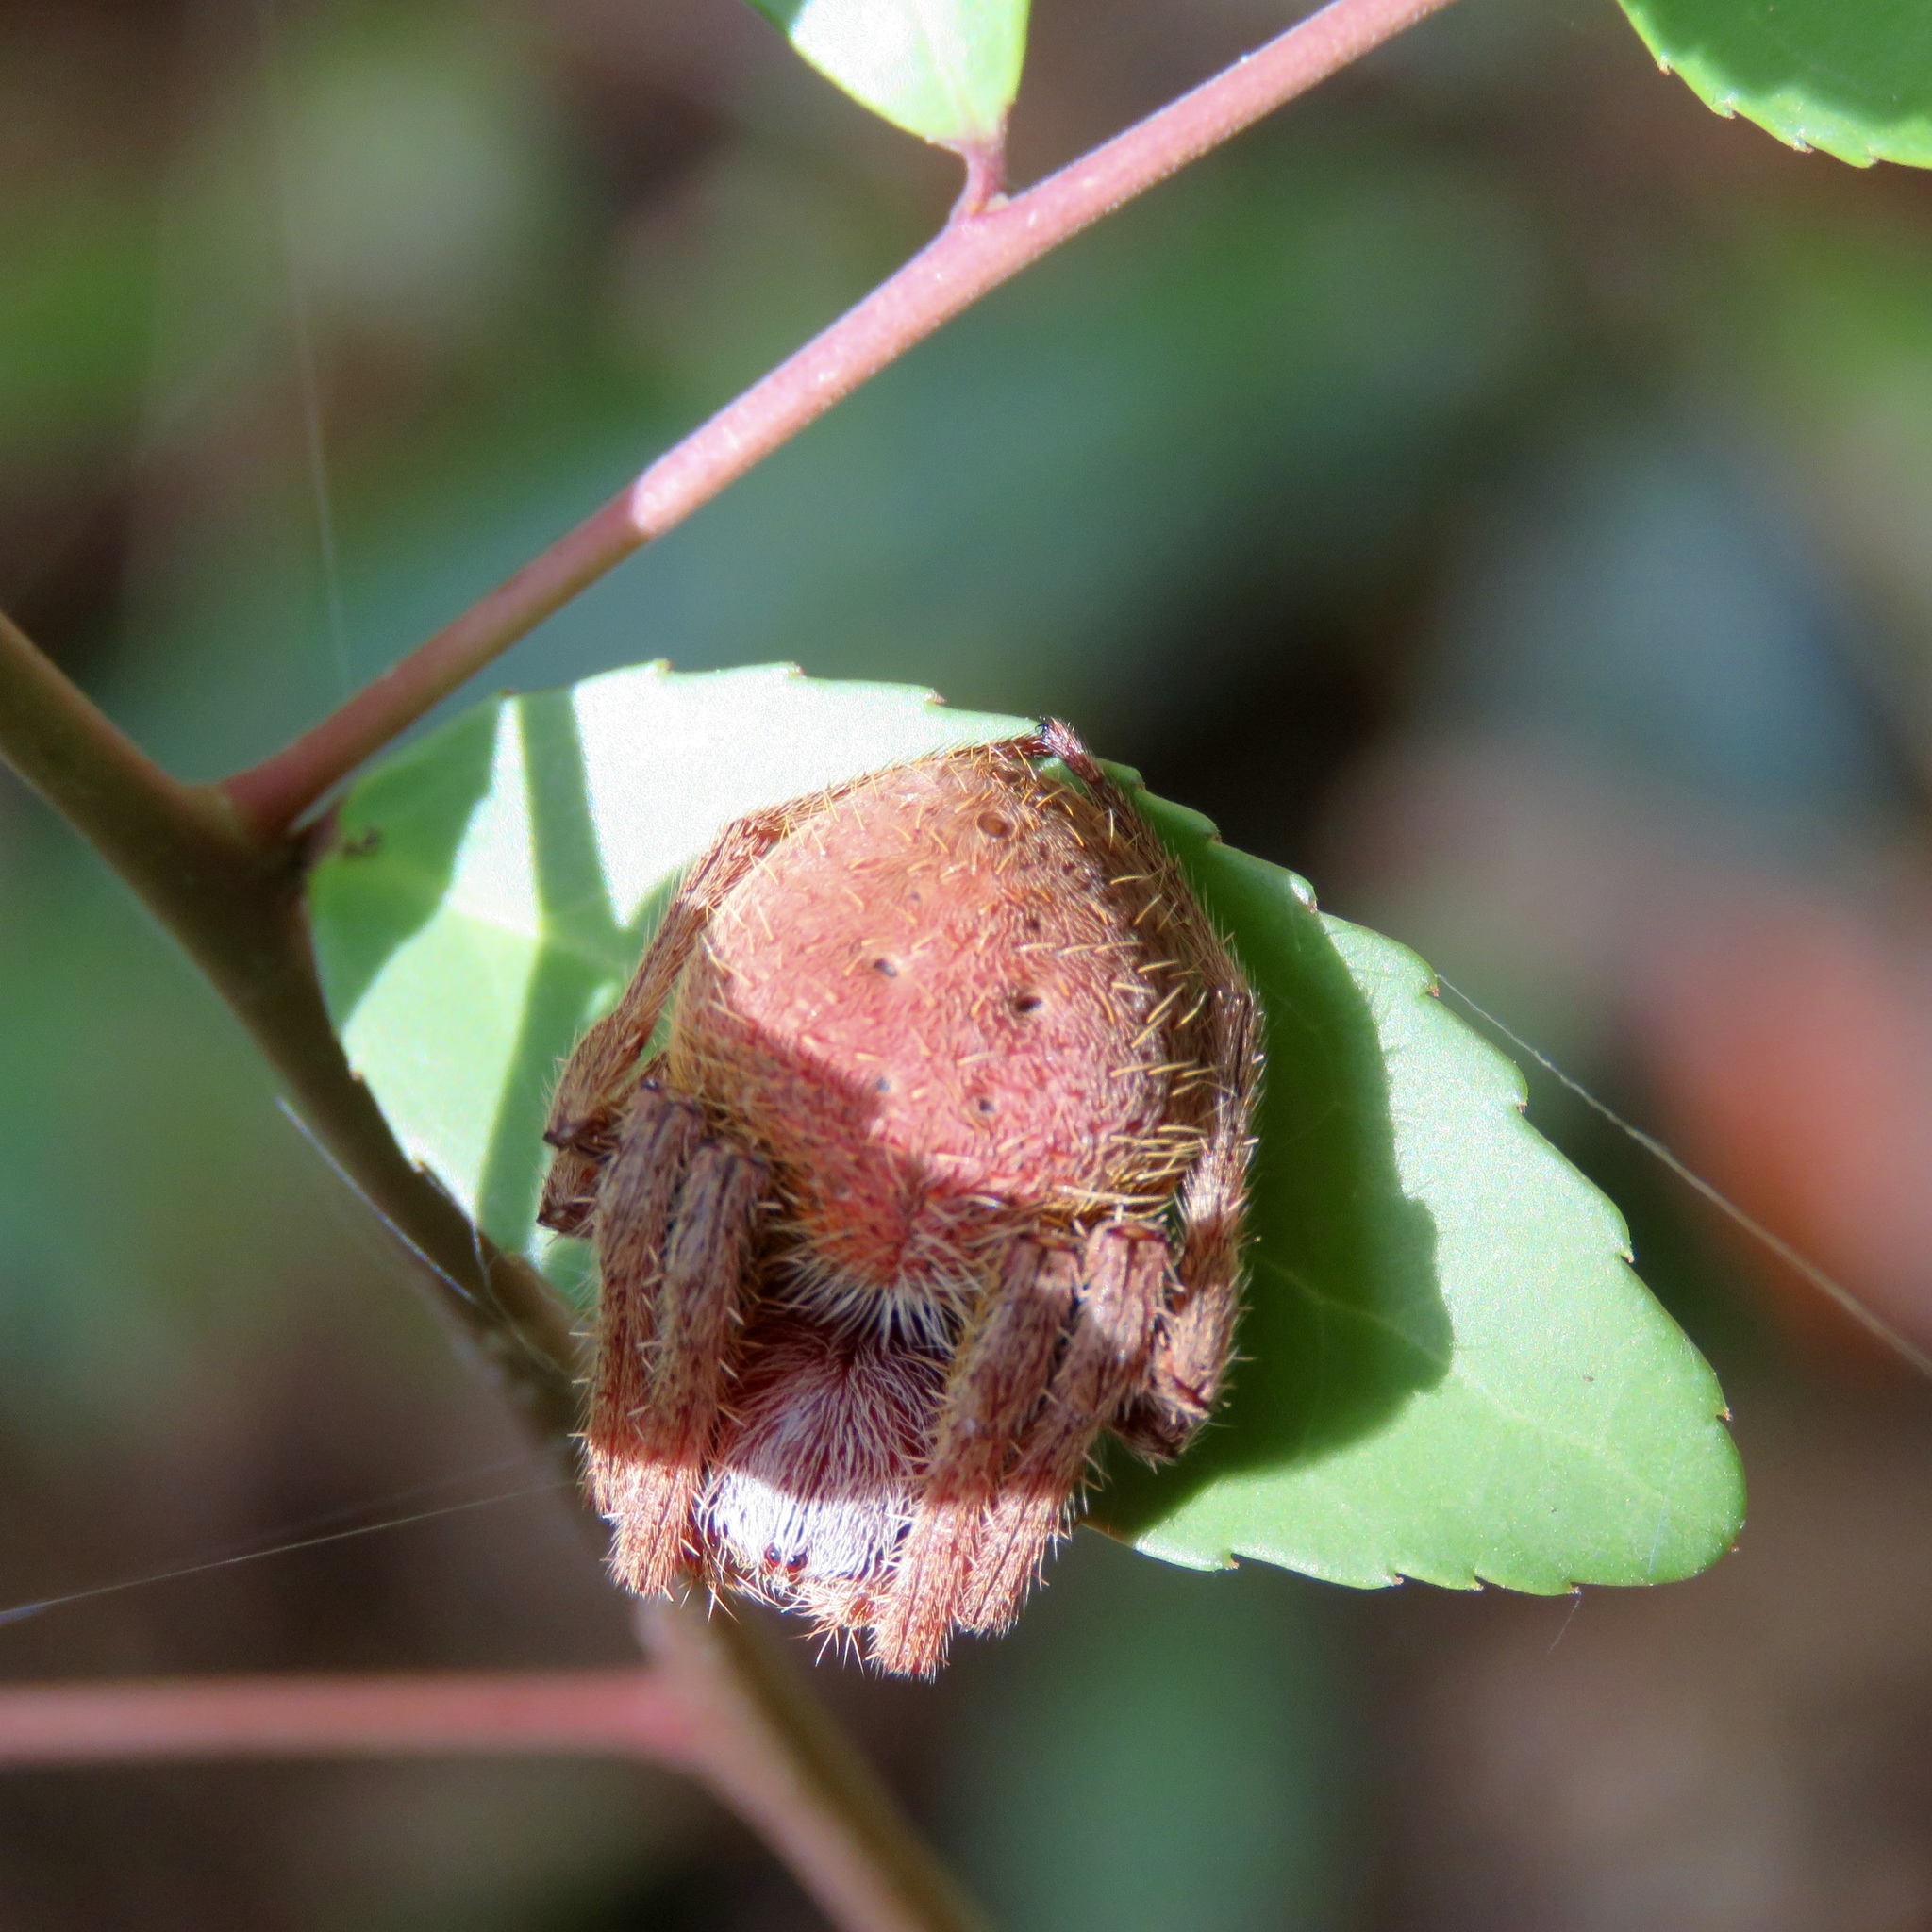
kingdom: Animalia
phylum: Arthropoda
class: Arachnida
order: Araneae
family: Araneidae
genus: Eriophora
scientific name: Eriophora ravilla
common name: Orb weavers
